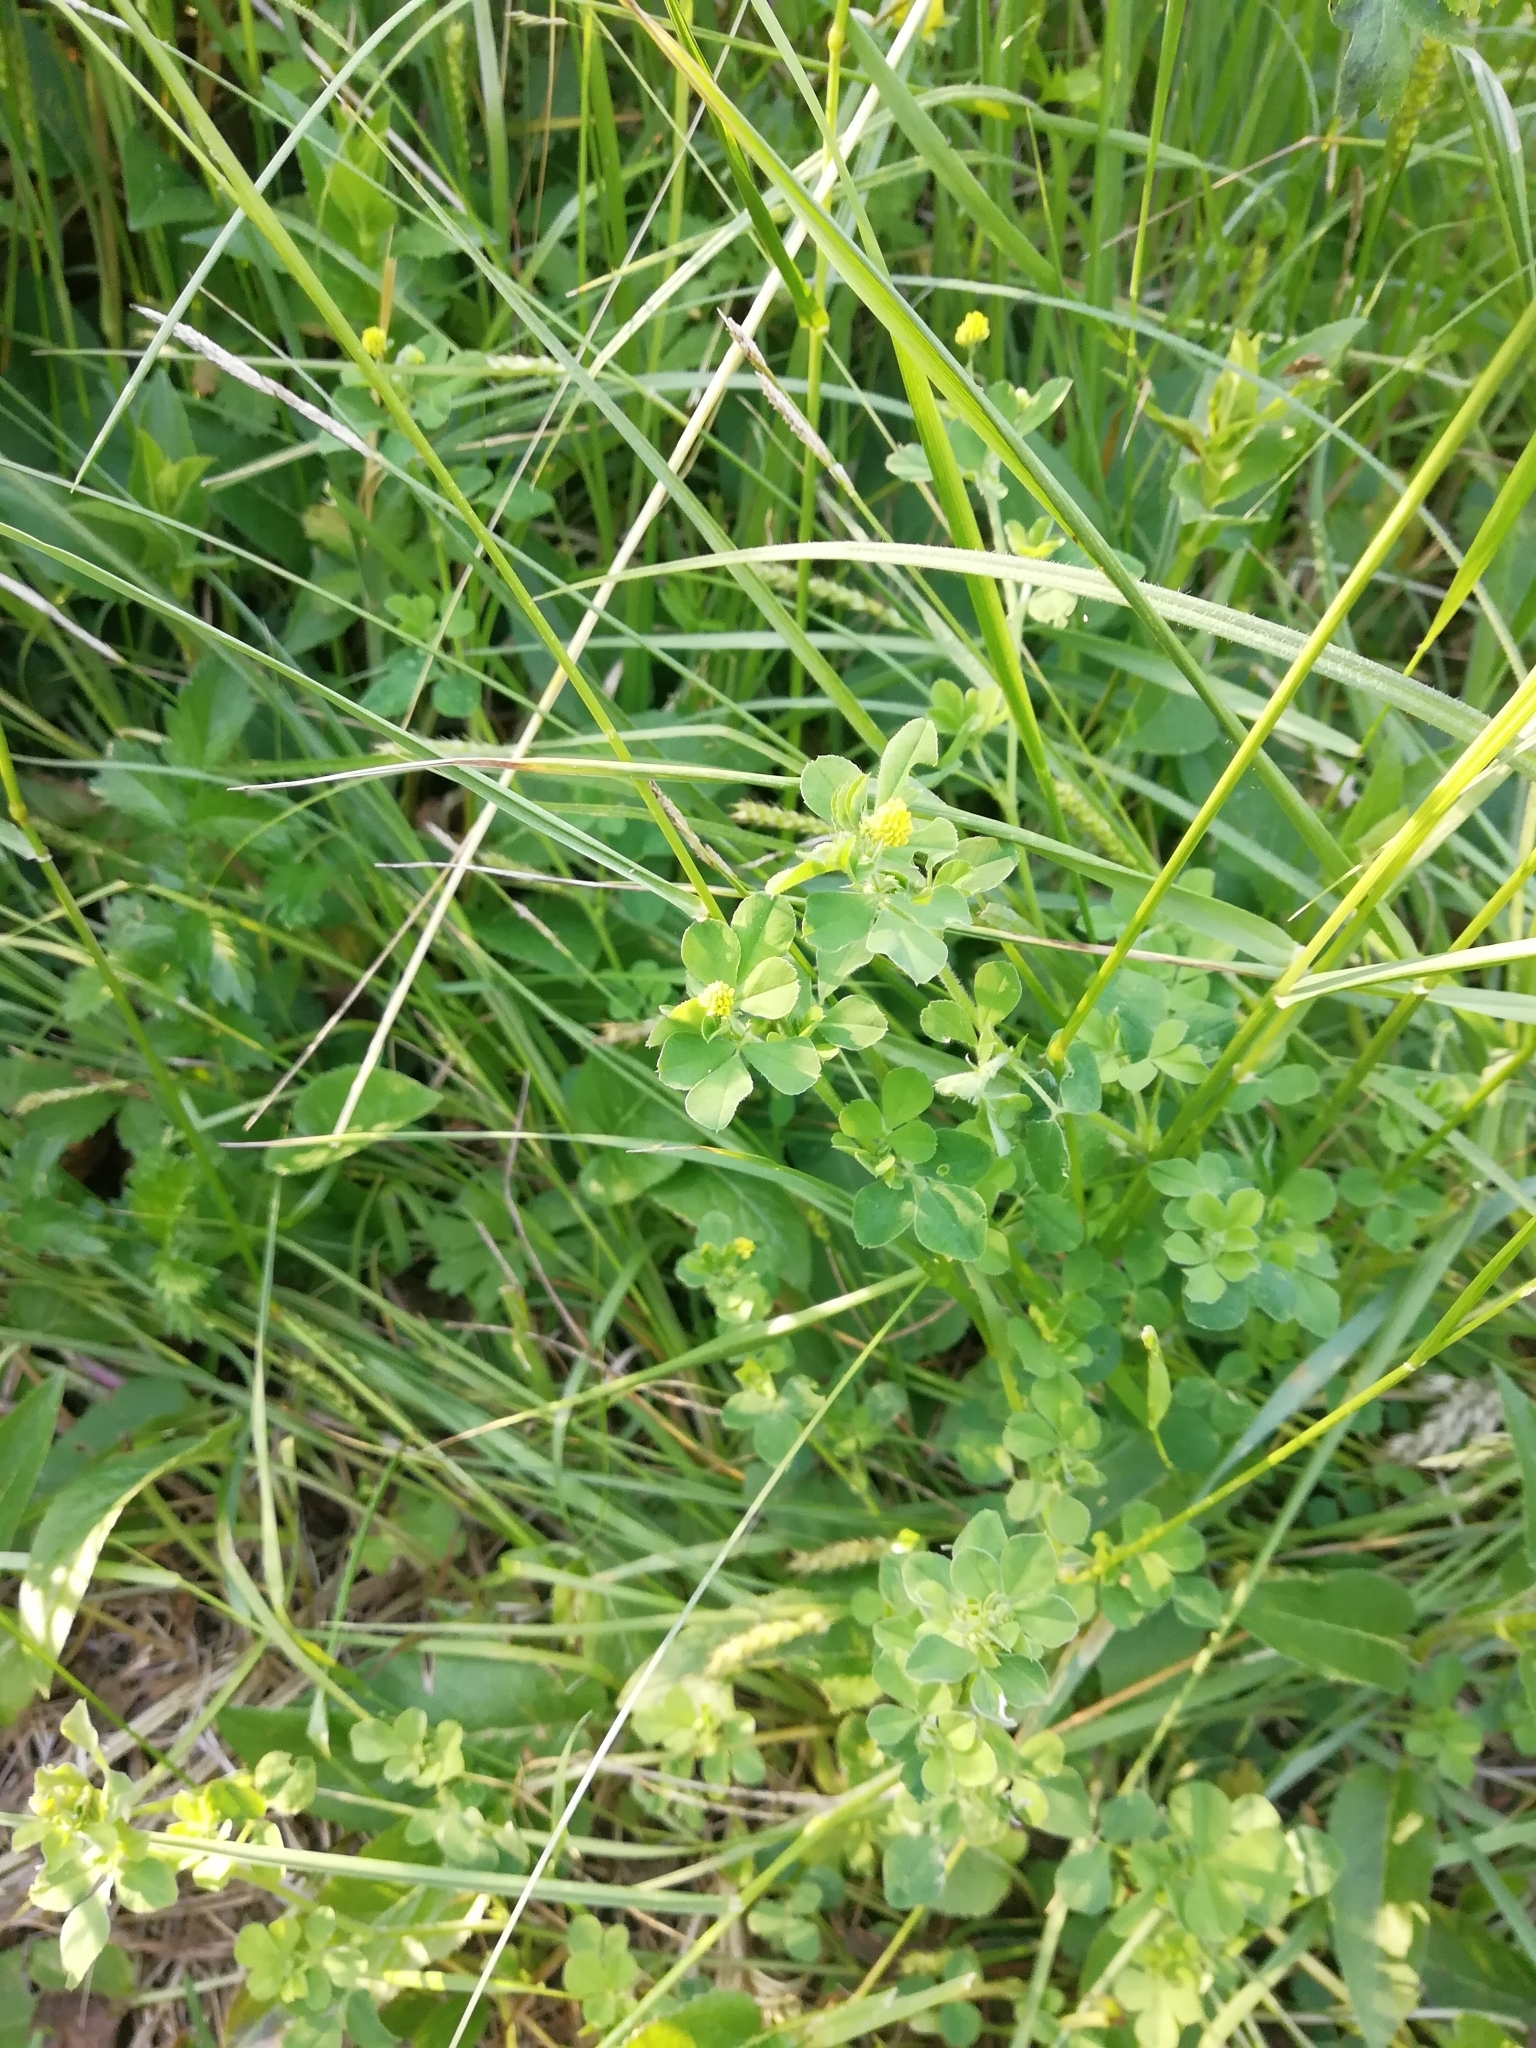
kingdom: Plantae
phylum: Tracheophyta
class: Magnoliopsida
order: Fabales
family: Fabaceae
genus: Medicago
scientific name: Medicago lupulina
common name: Black medick
